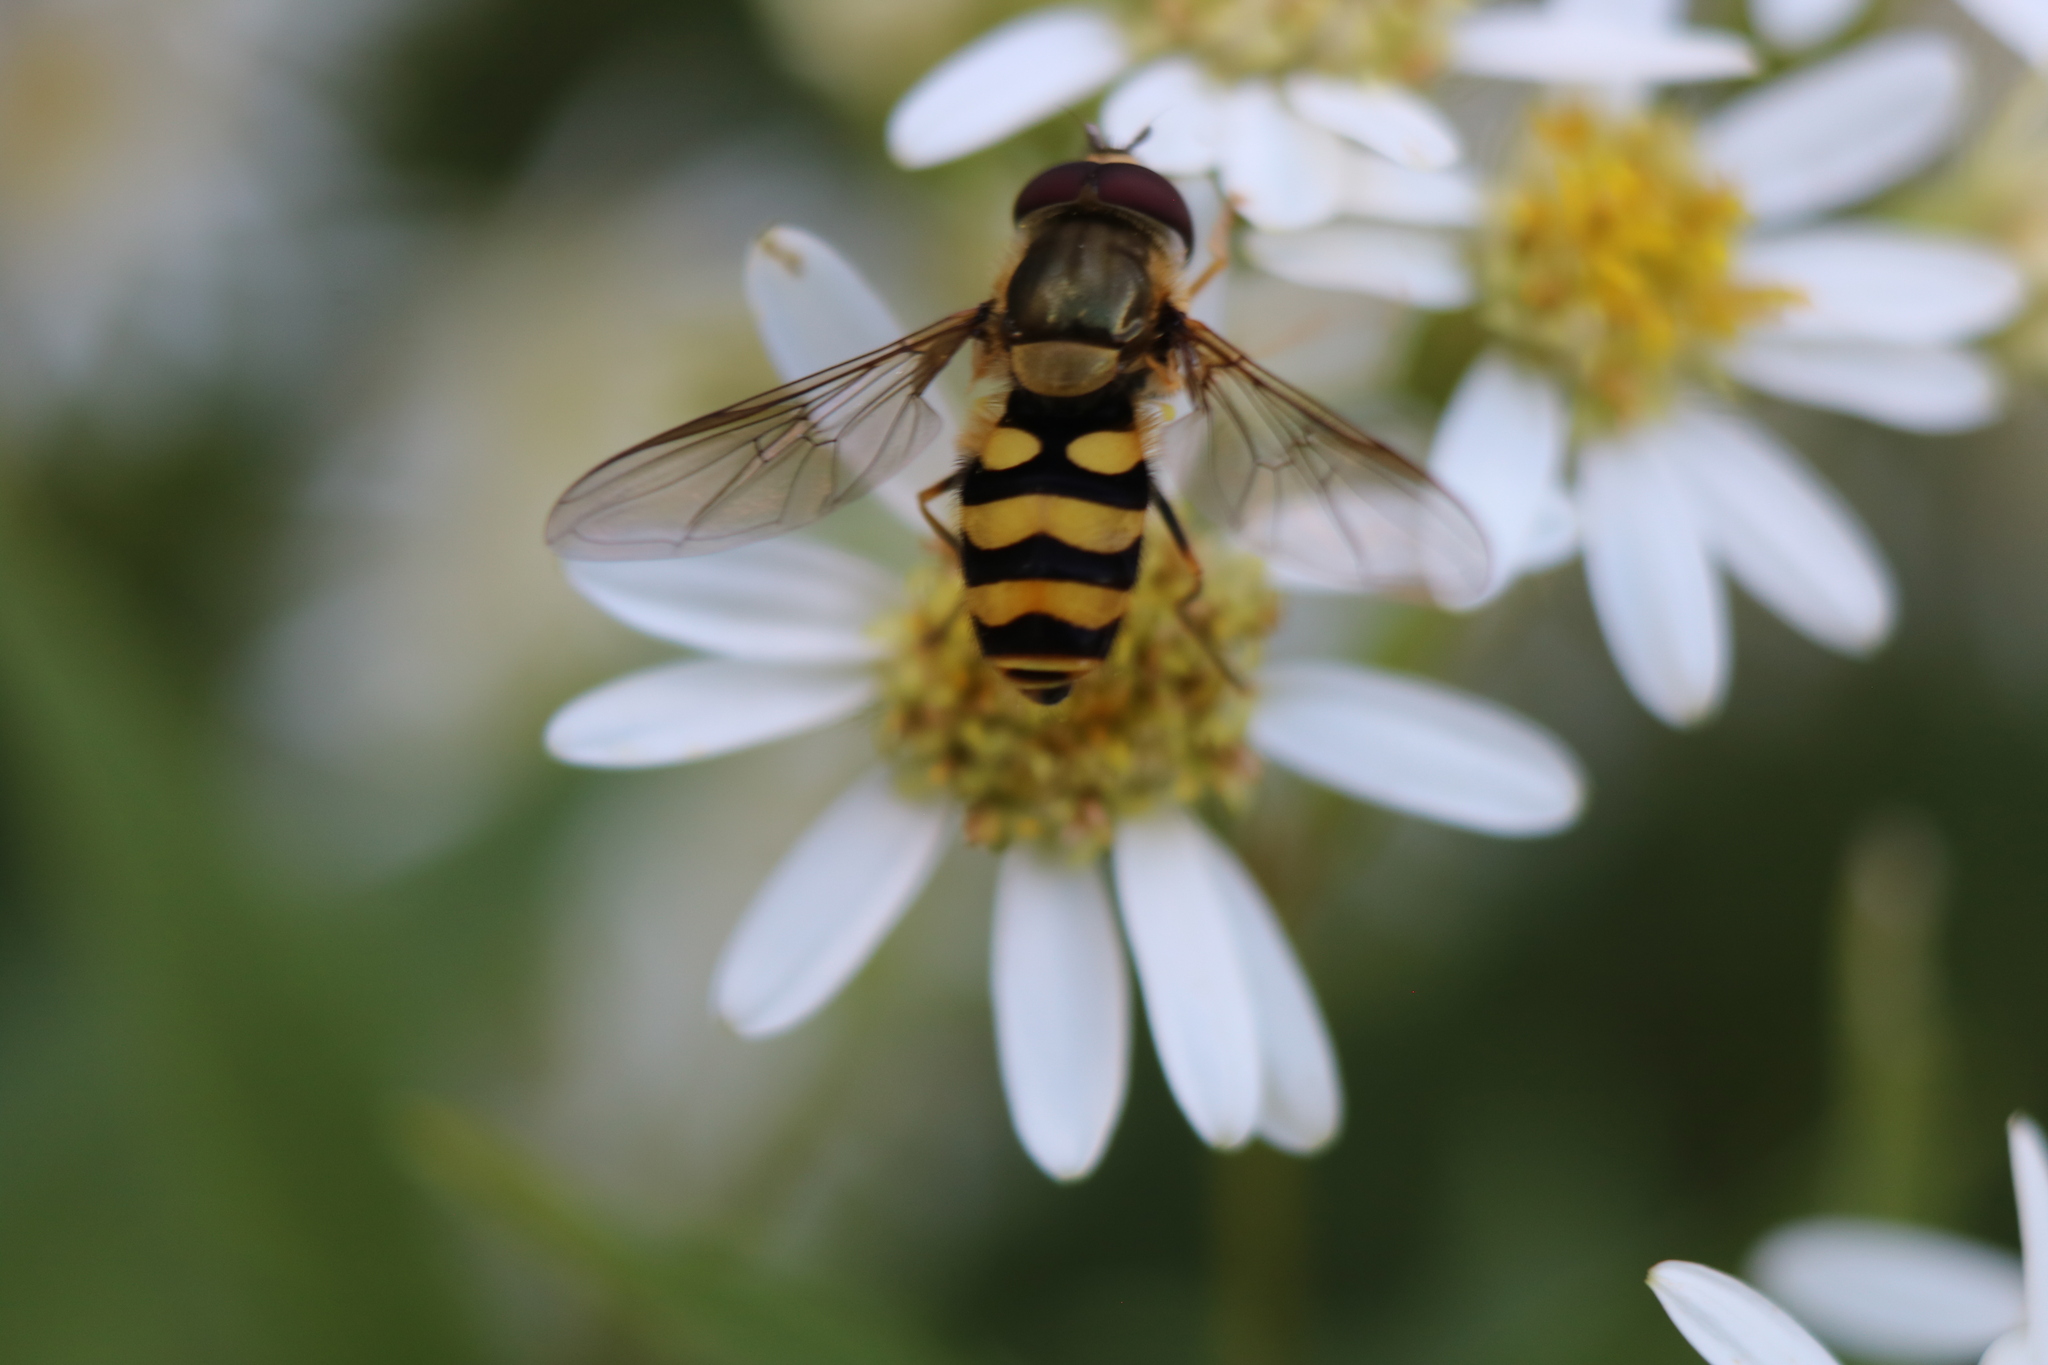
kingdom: Animalia
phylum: Arthropoda
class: Insecta
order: Diptera
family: Syrphidae
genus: Syrphus
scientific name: Syrphus
